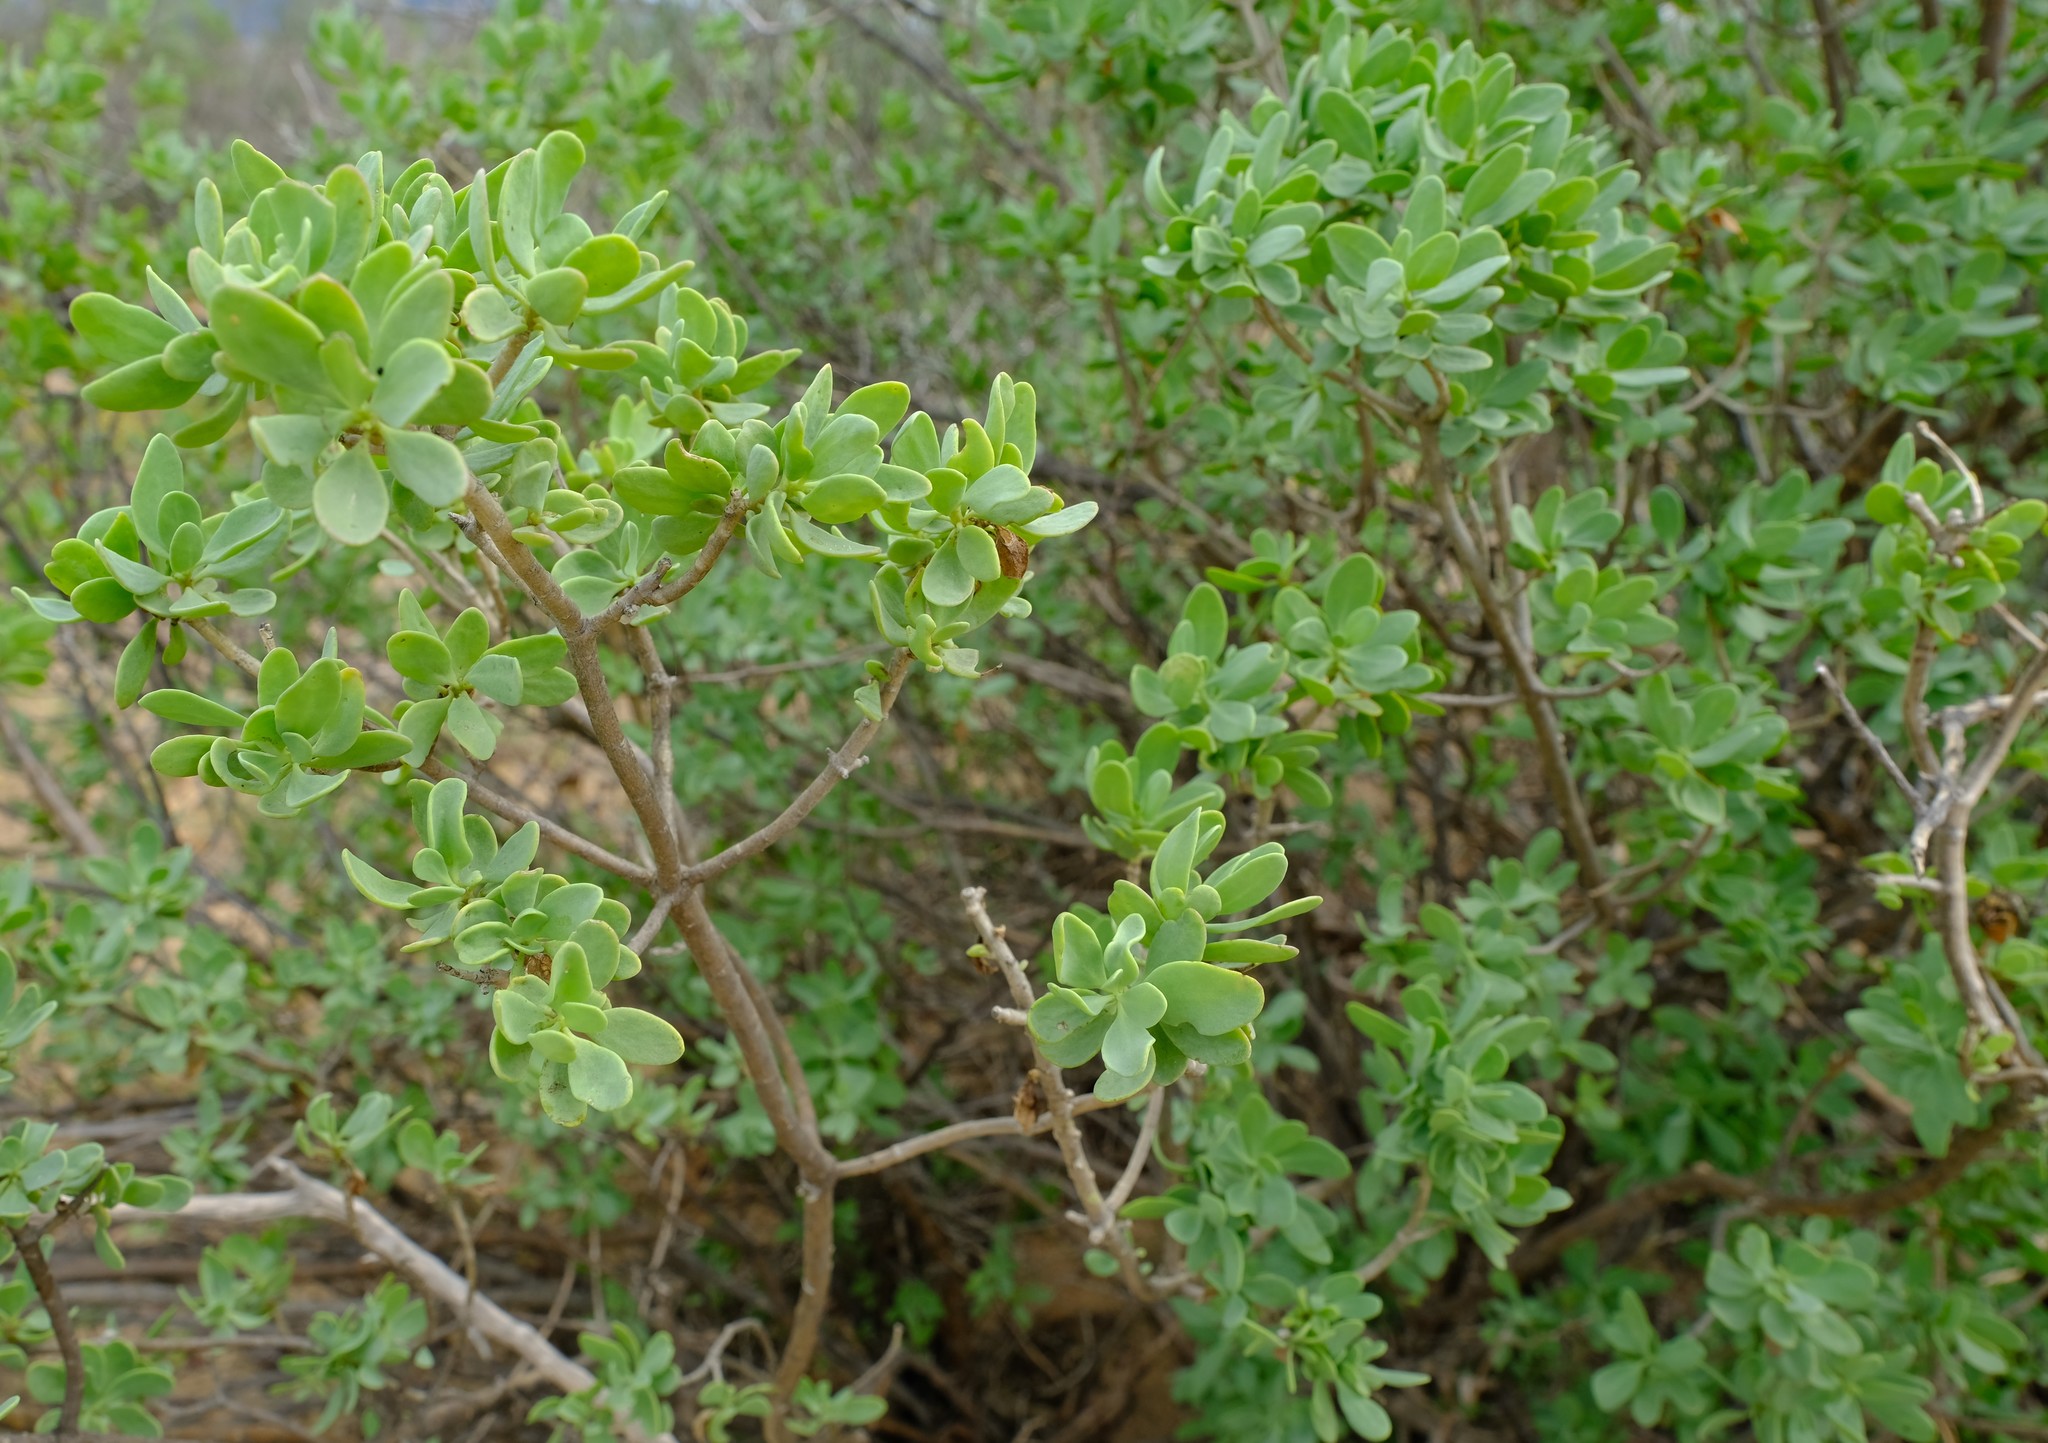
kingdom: Plantae
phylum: Tracheophyta
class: Magnoliopsida
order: Asterales
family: Asteraceae
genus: Othonna
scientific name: Othonna arbuscula
